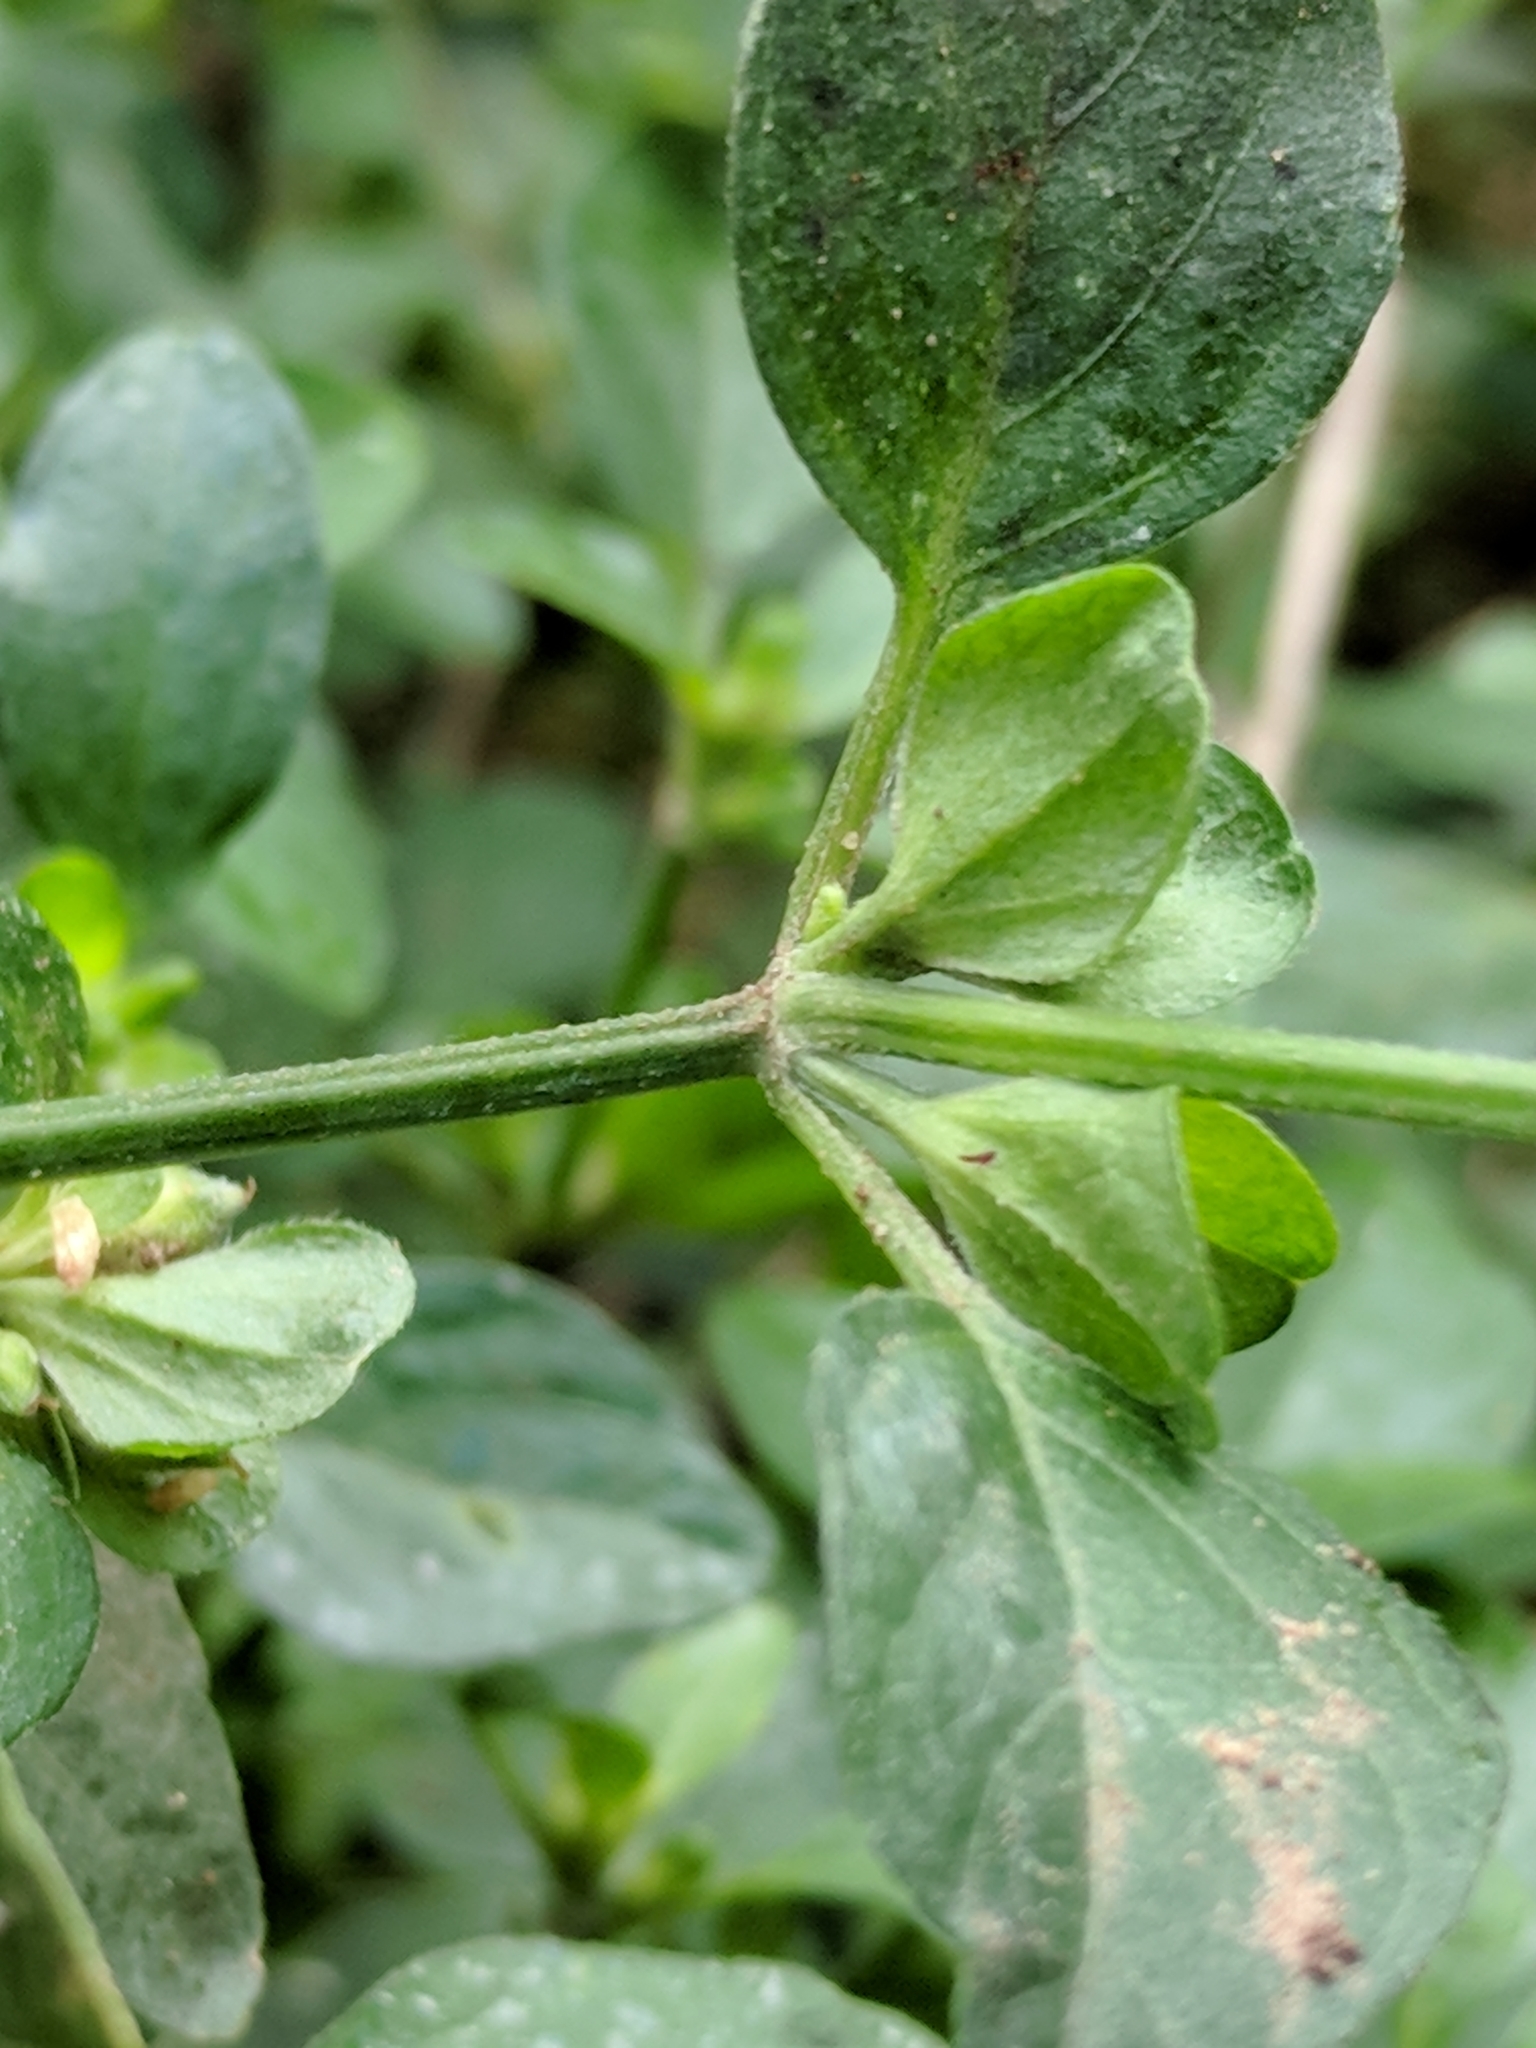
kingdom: Plantae
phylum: Tracheophyta
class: Magnoliopsida
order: Lamiales
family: Acanthaceae
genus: Dicliptera
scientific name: Dicliptera brachiata
